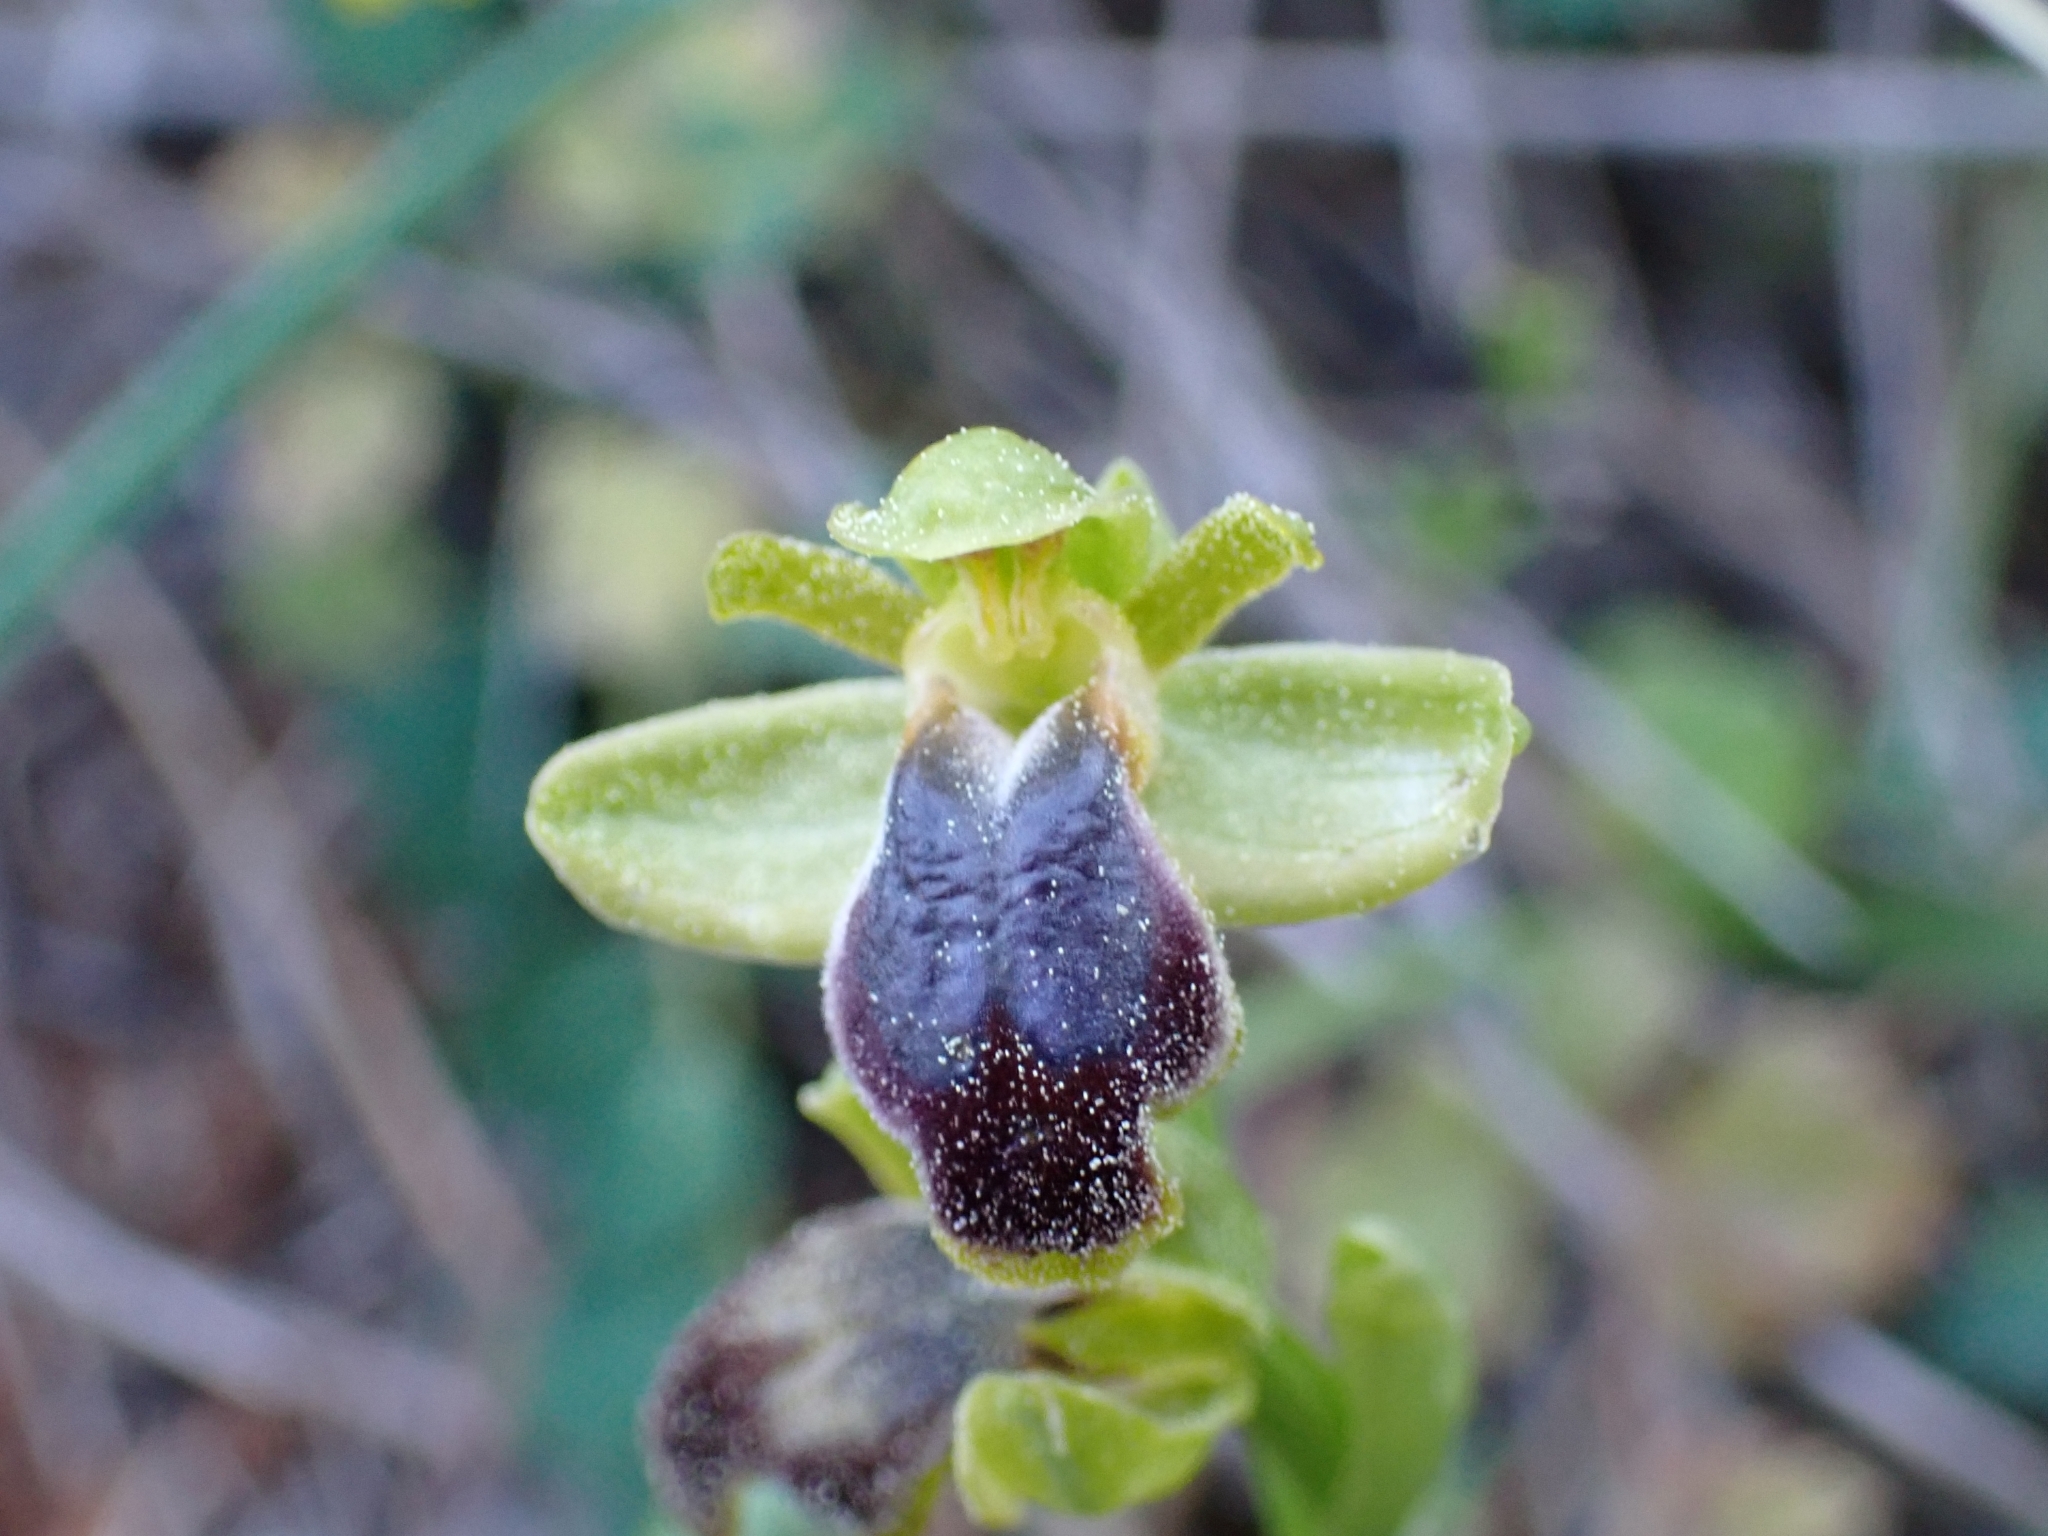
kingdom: Plantae
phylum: Tracheophyta
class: Liliopsida
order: Asparagales
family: Orchidaceae
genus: Ophrys
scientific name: Ophrys fusca
